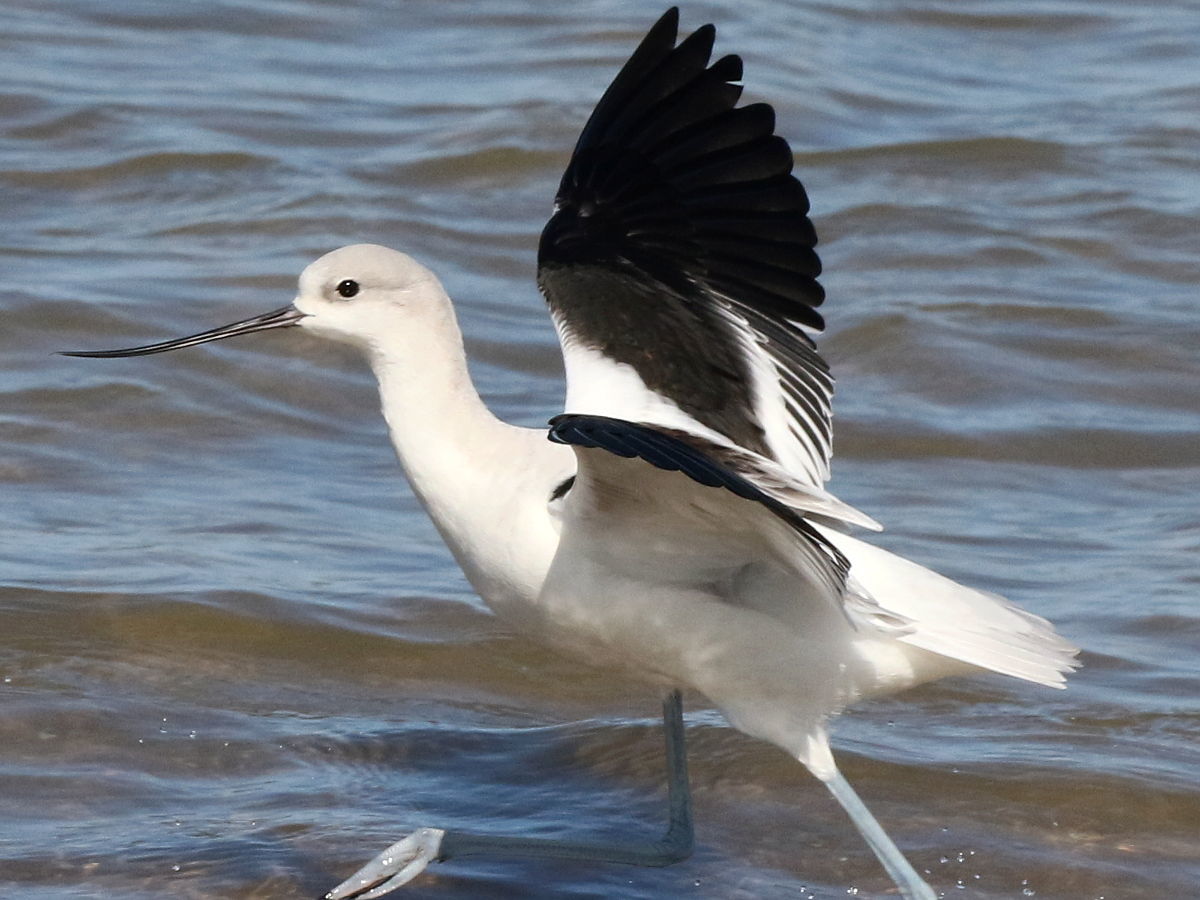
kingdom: Animalia
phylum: Chordata
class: Aves
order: Charadriiformes
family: Recurvirostridae
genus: Recurvirostra
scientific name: Recurvirostra americana
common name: American avocet
